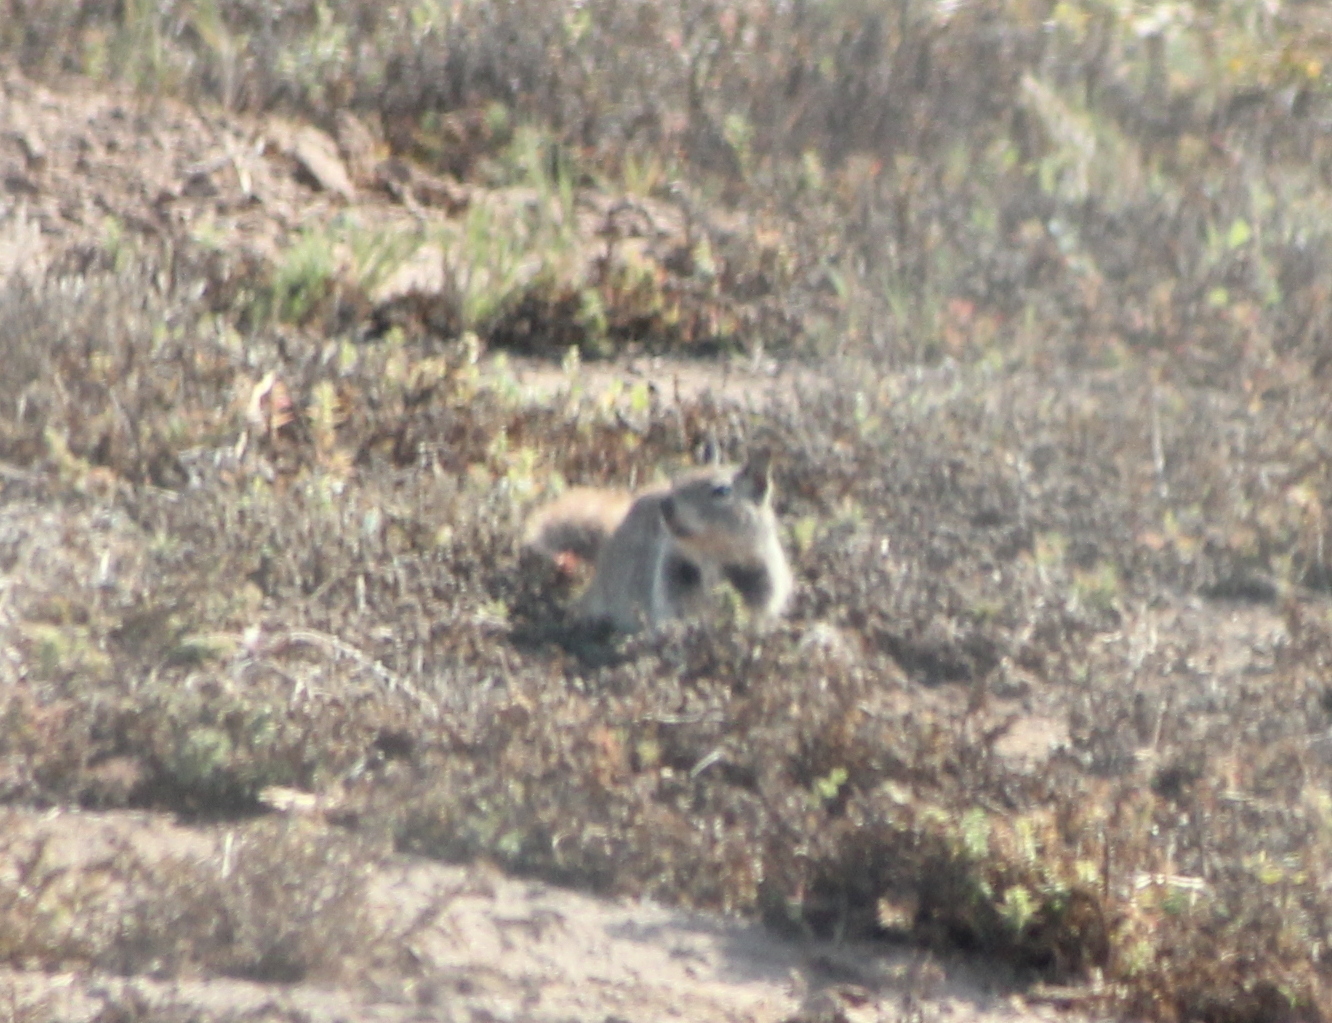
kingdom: Animalia
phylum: Chordata
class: Mammalia
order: Rodentia
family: Sciuridae
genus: Otospermophilus
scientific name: Otospermophilus beecheyi
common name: California ground squirrel
